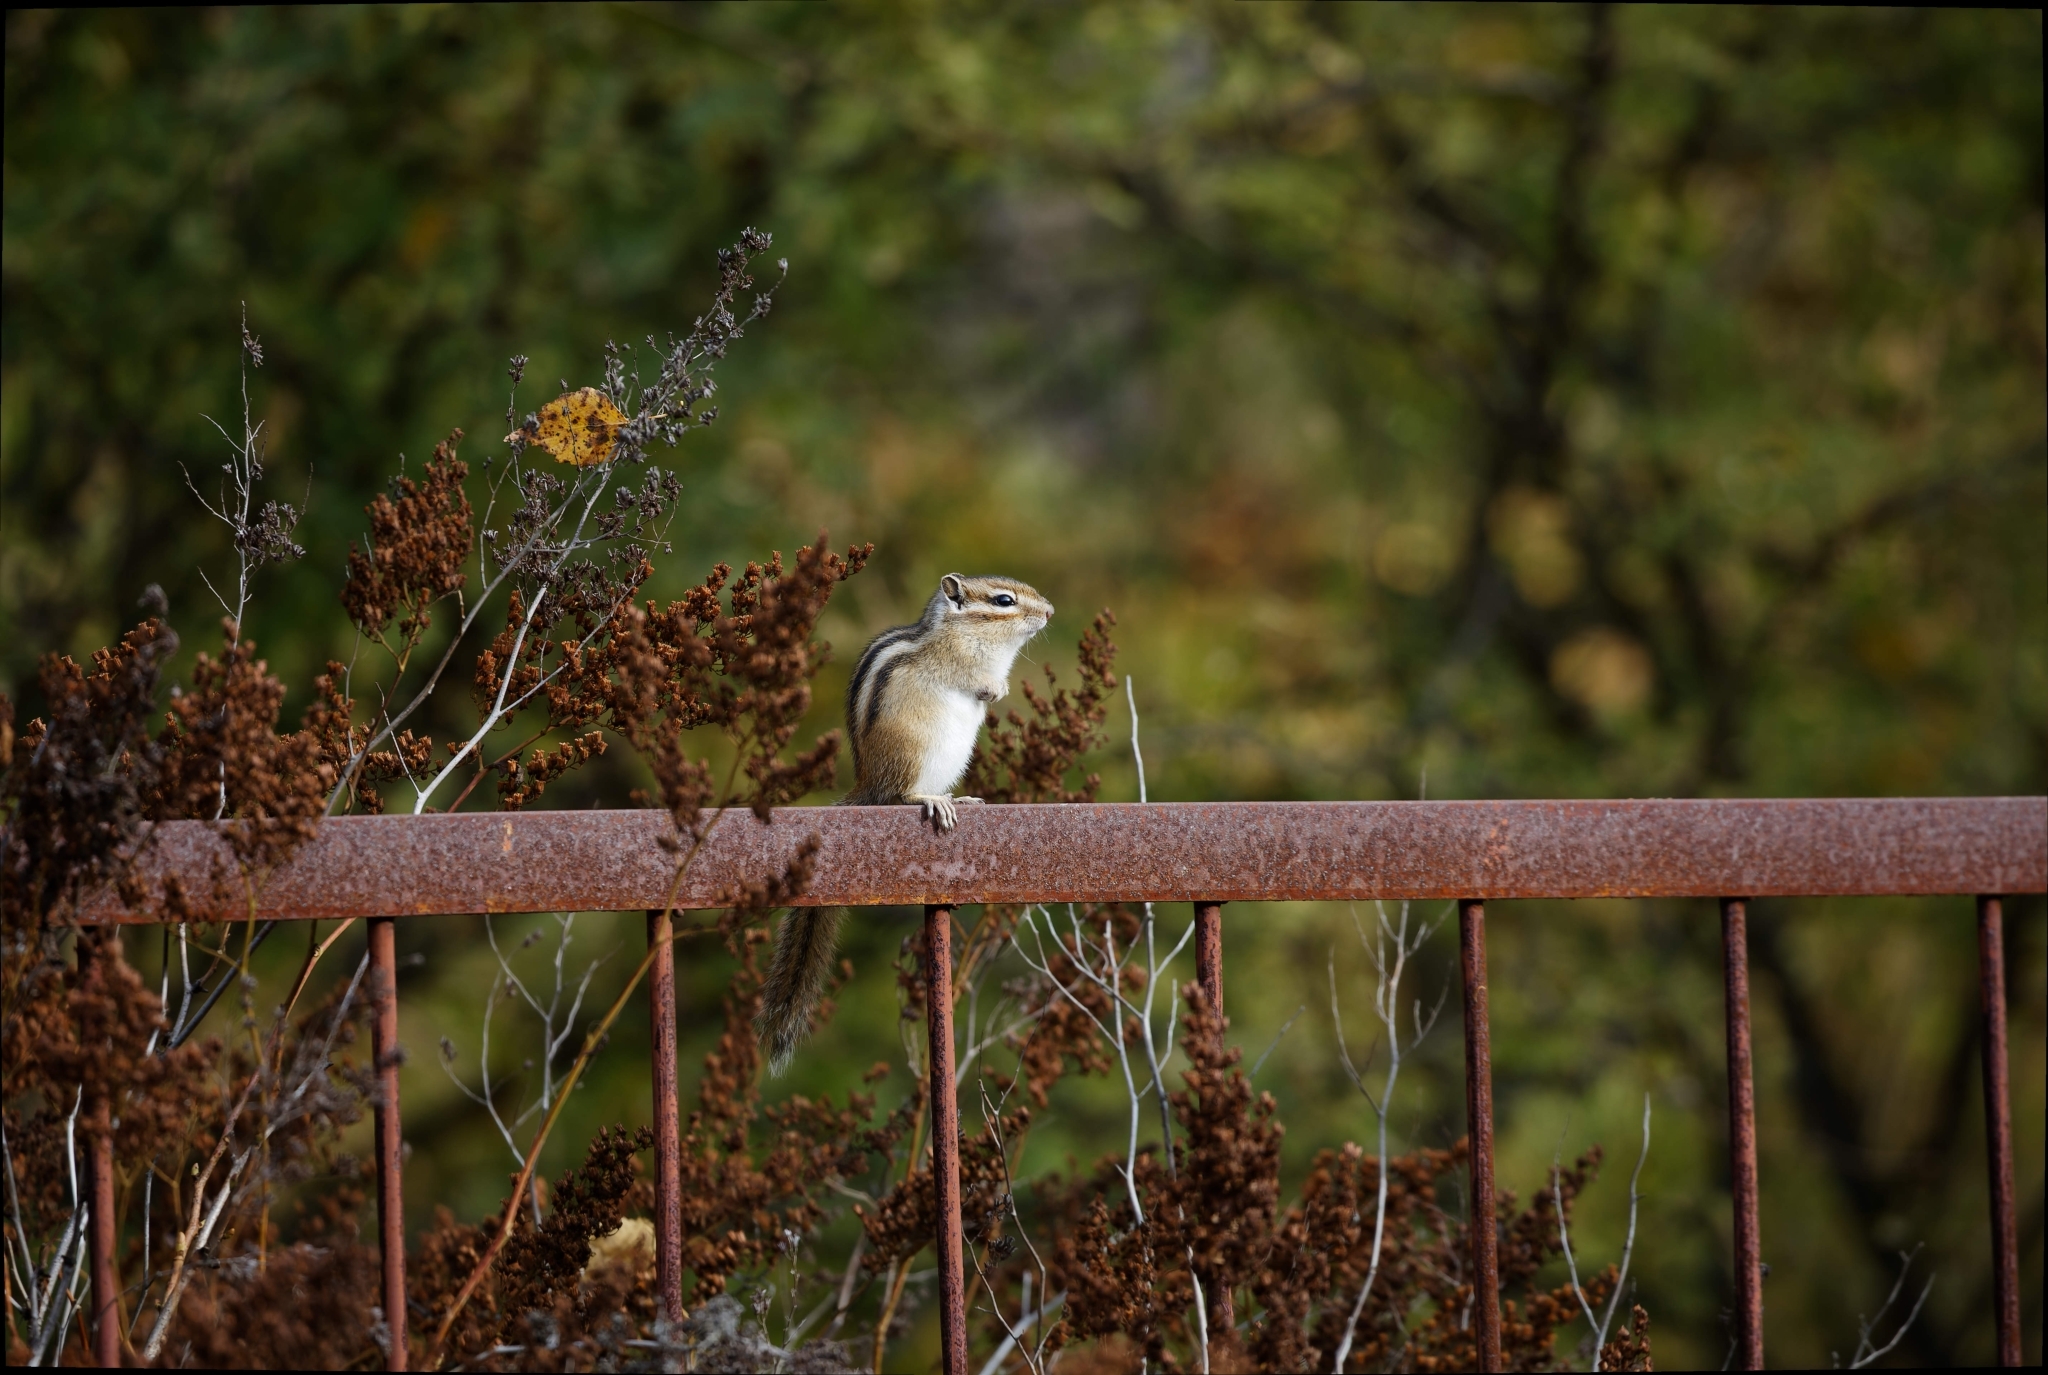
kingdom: Animalia
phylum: Chordata
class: Mammalia
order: Rodentia
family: Sciuridae
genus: Tamias
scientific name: Tamias sibiricus
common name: Siberian chipmunk
